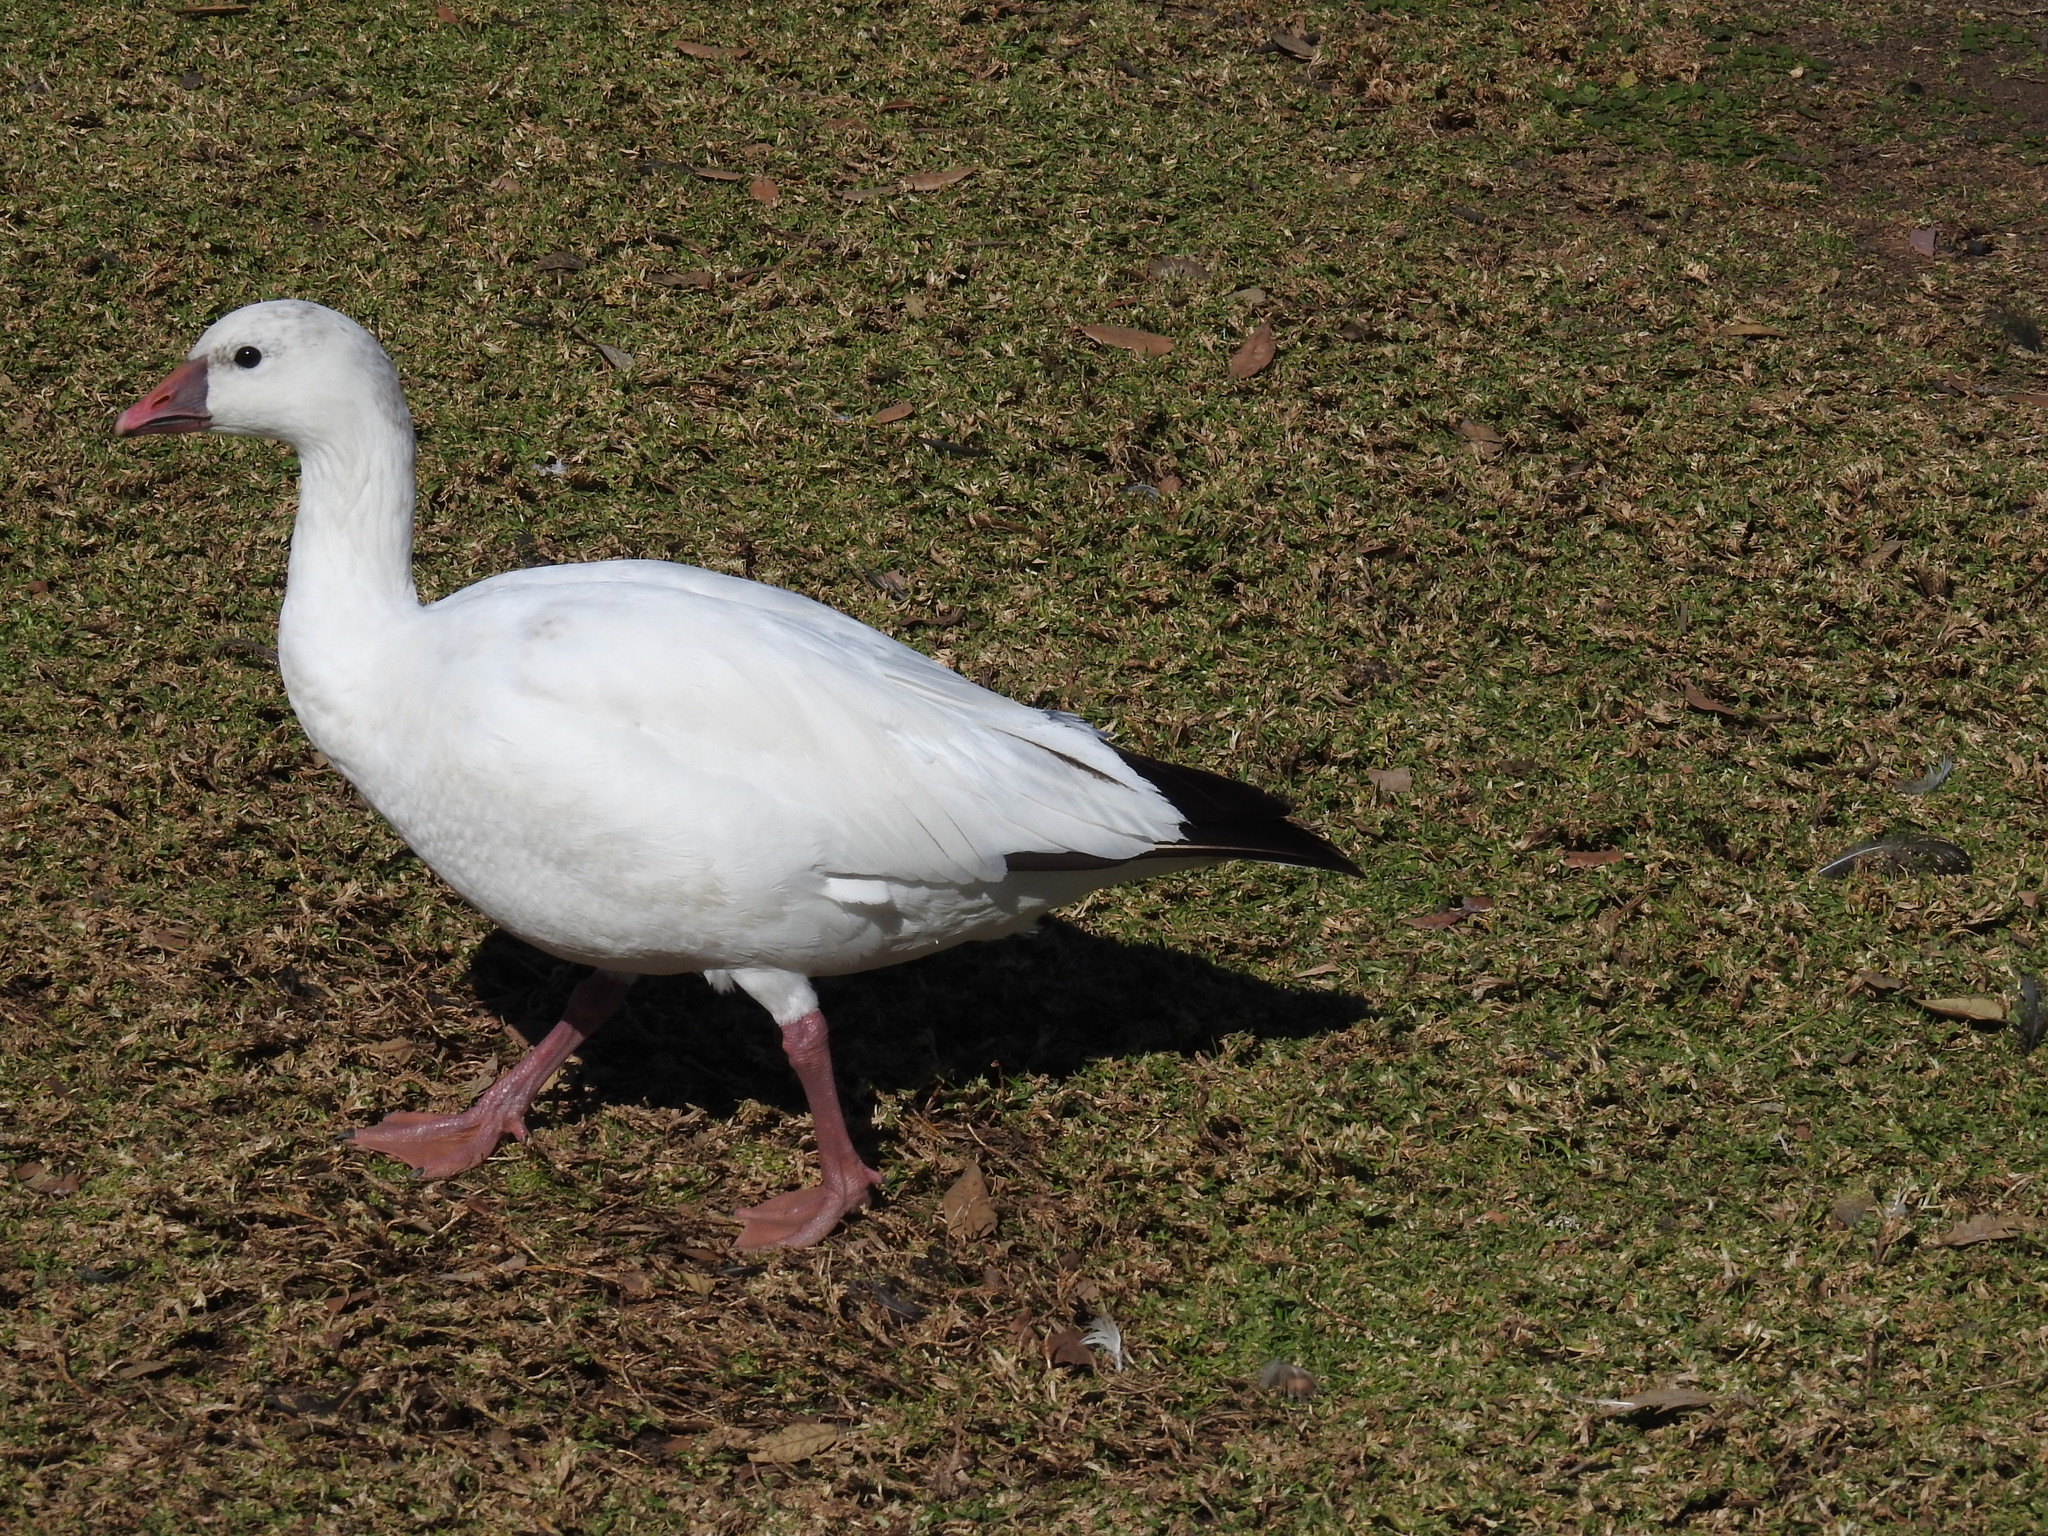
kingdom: Animalia
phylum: Chordata
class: Aves
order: Anseriformes
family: Anatidae
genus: Anser
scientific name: Anser rossii
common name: Ross's goose
